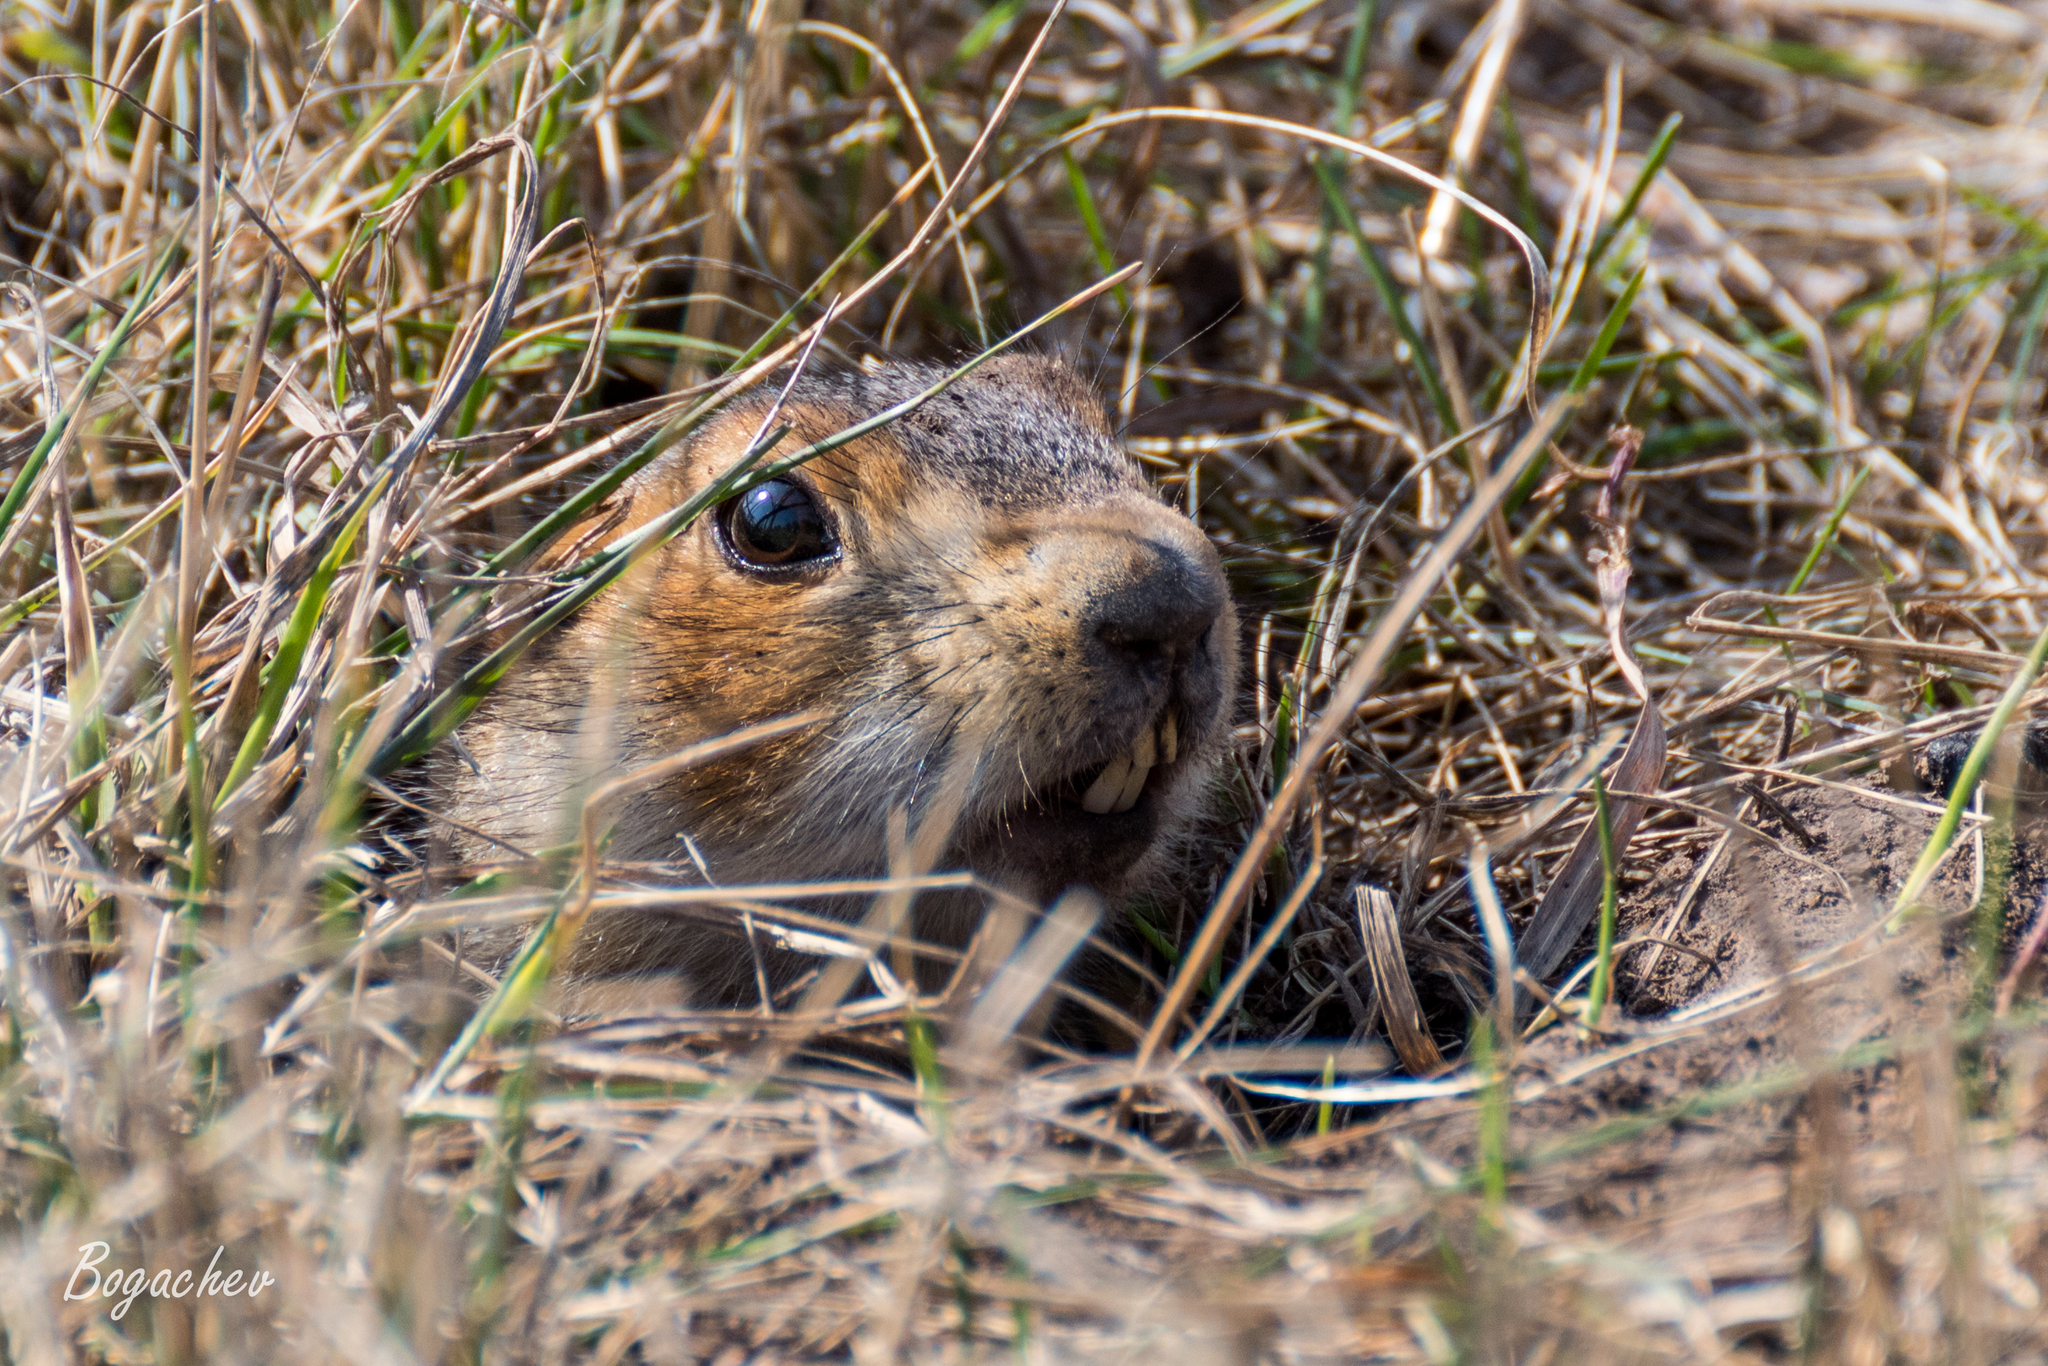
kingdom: Animalia
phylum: Chordata
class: Mammalia
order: Rodentia
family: Sciuridae
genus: Spermophilus
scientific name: Spermophilus major
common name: Russet ground squirrel
